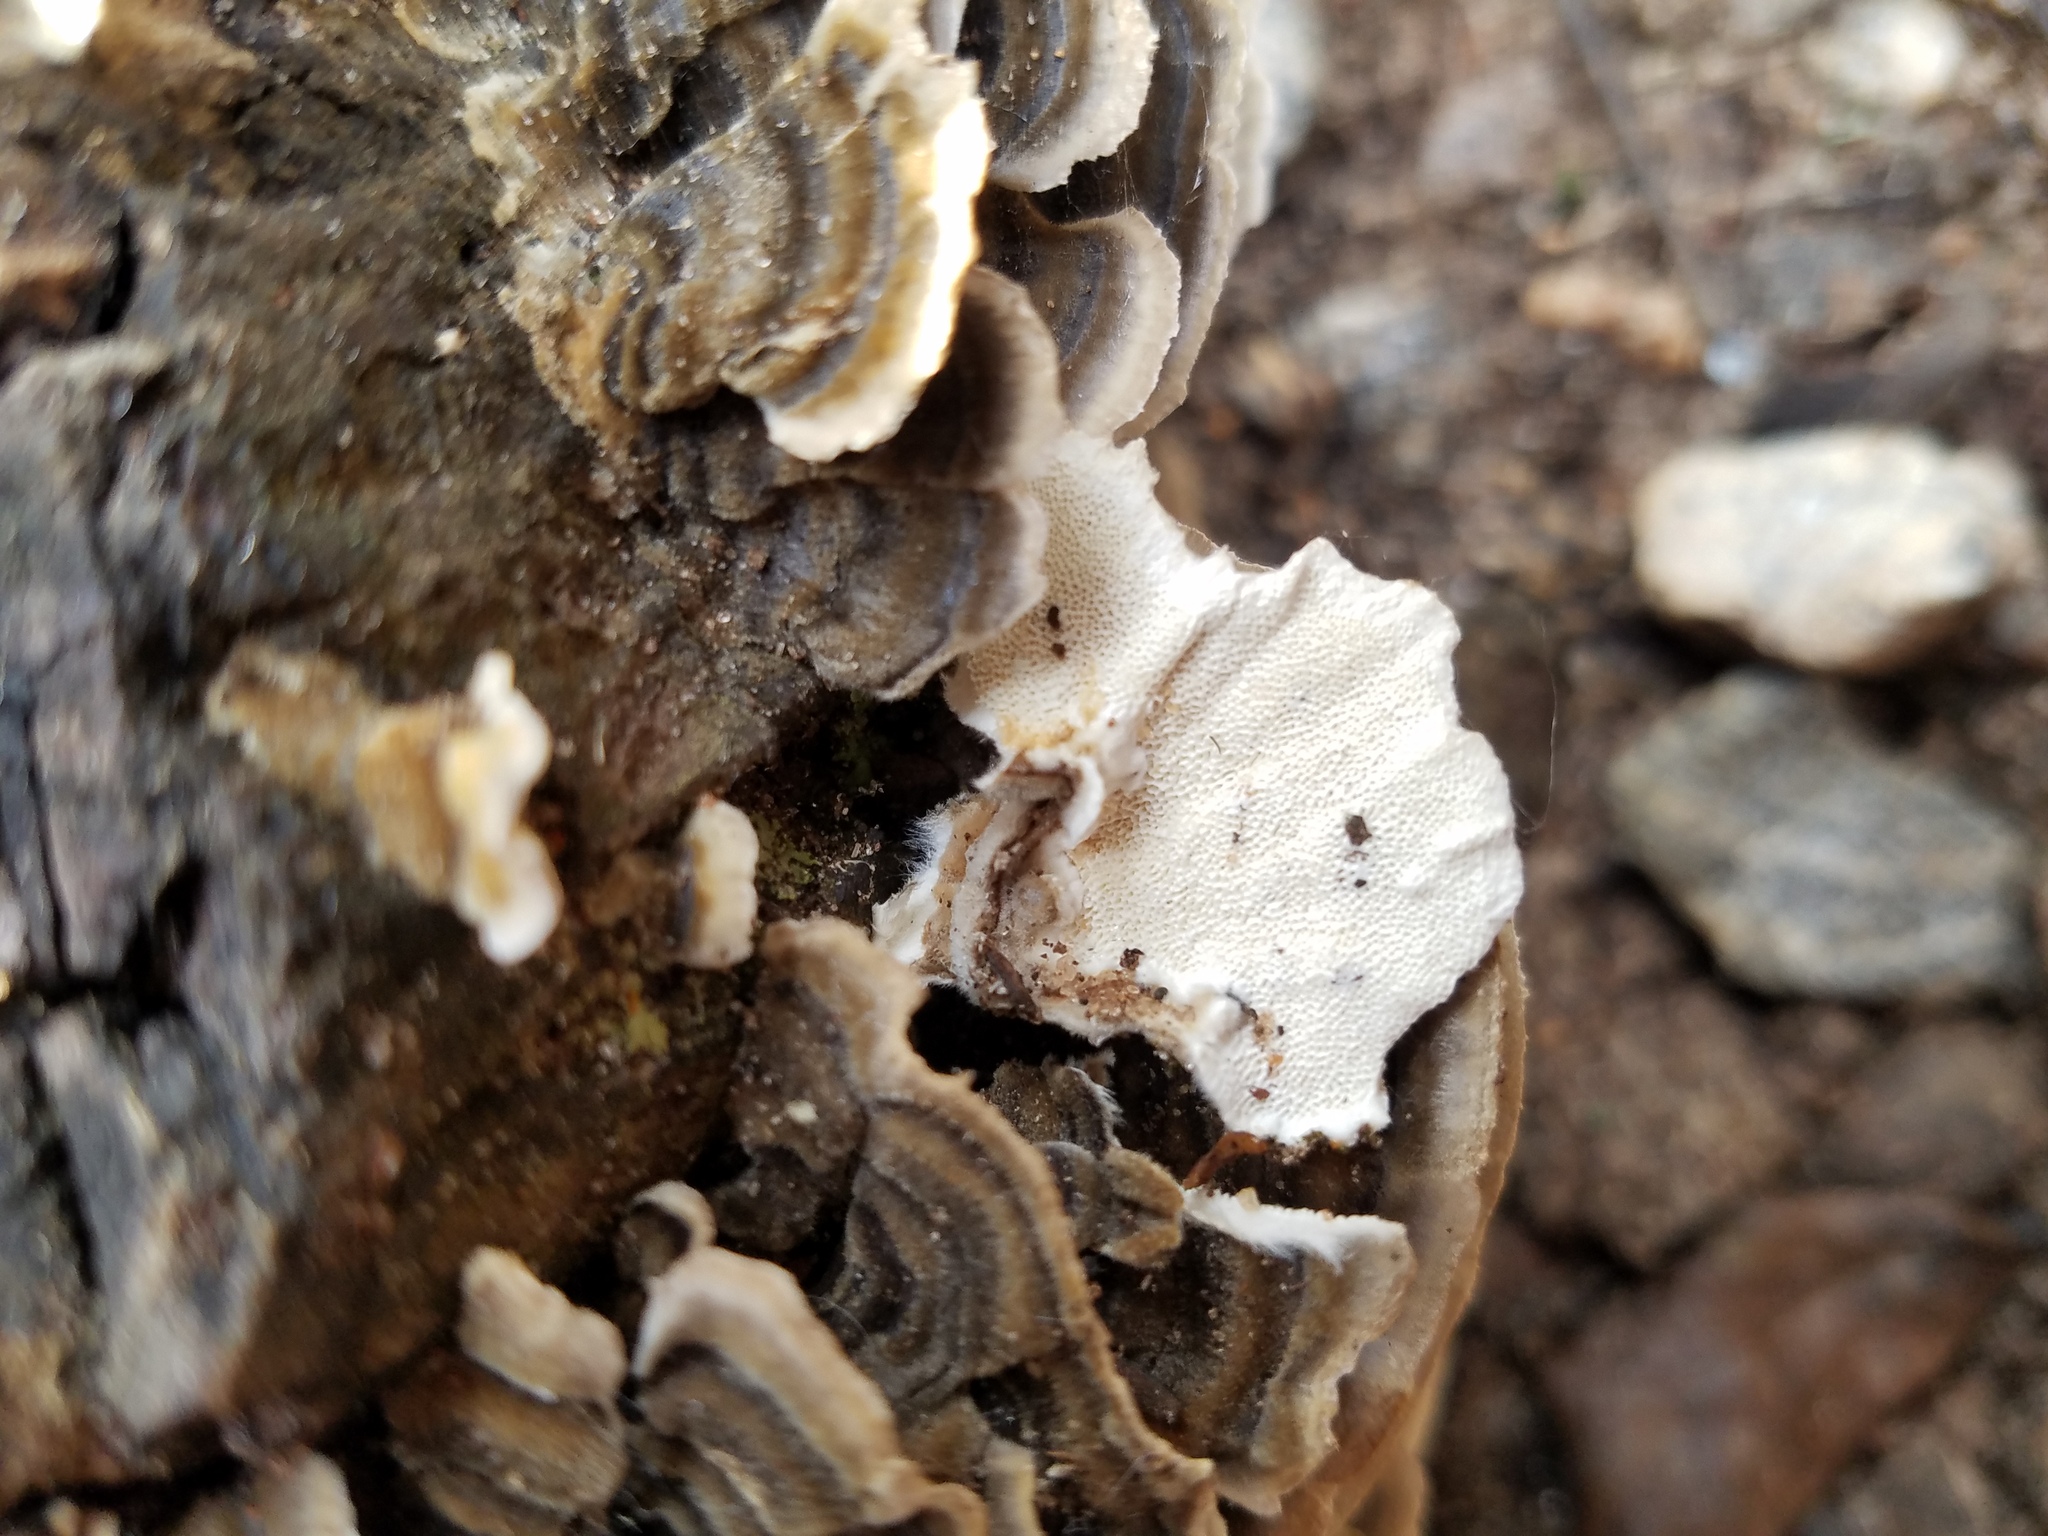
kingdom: Fungi
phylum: Basidiomycota
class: Agaricomycetes
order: Polyporales
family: Polyporaceae
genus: Trametes
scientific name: Trametes versicolor
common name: Turkeytail
